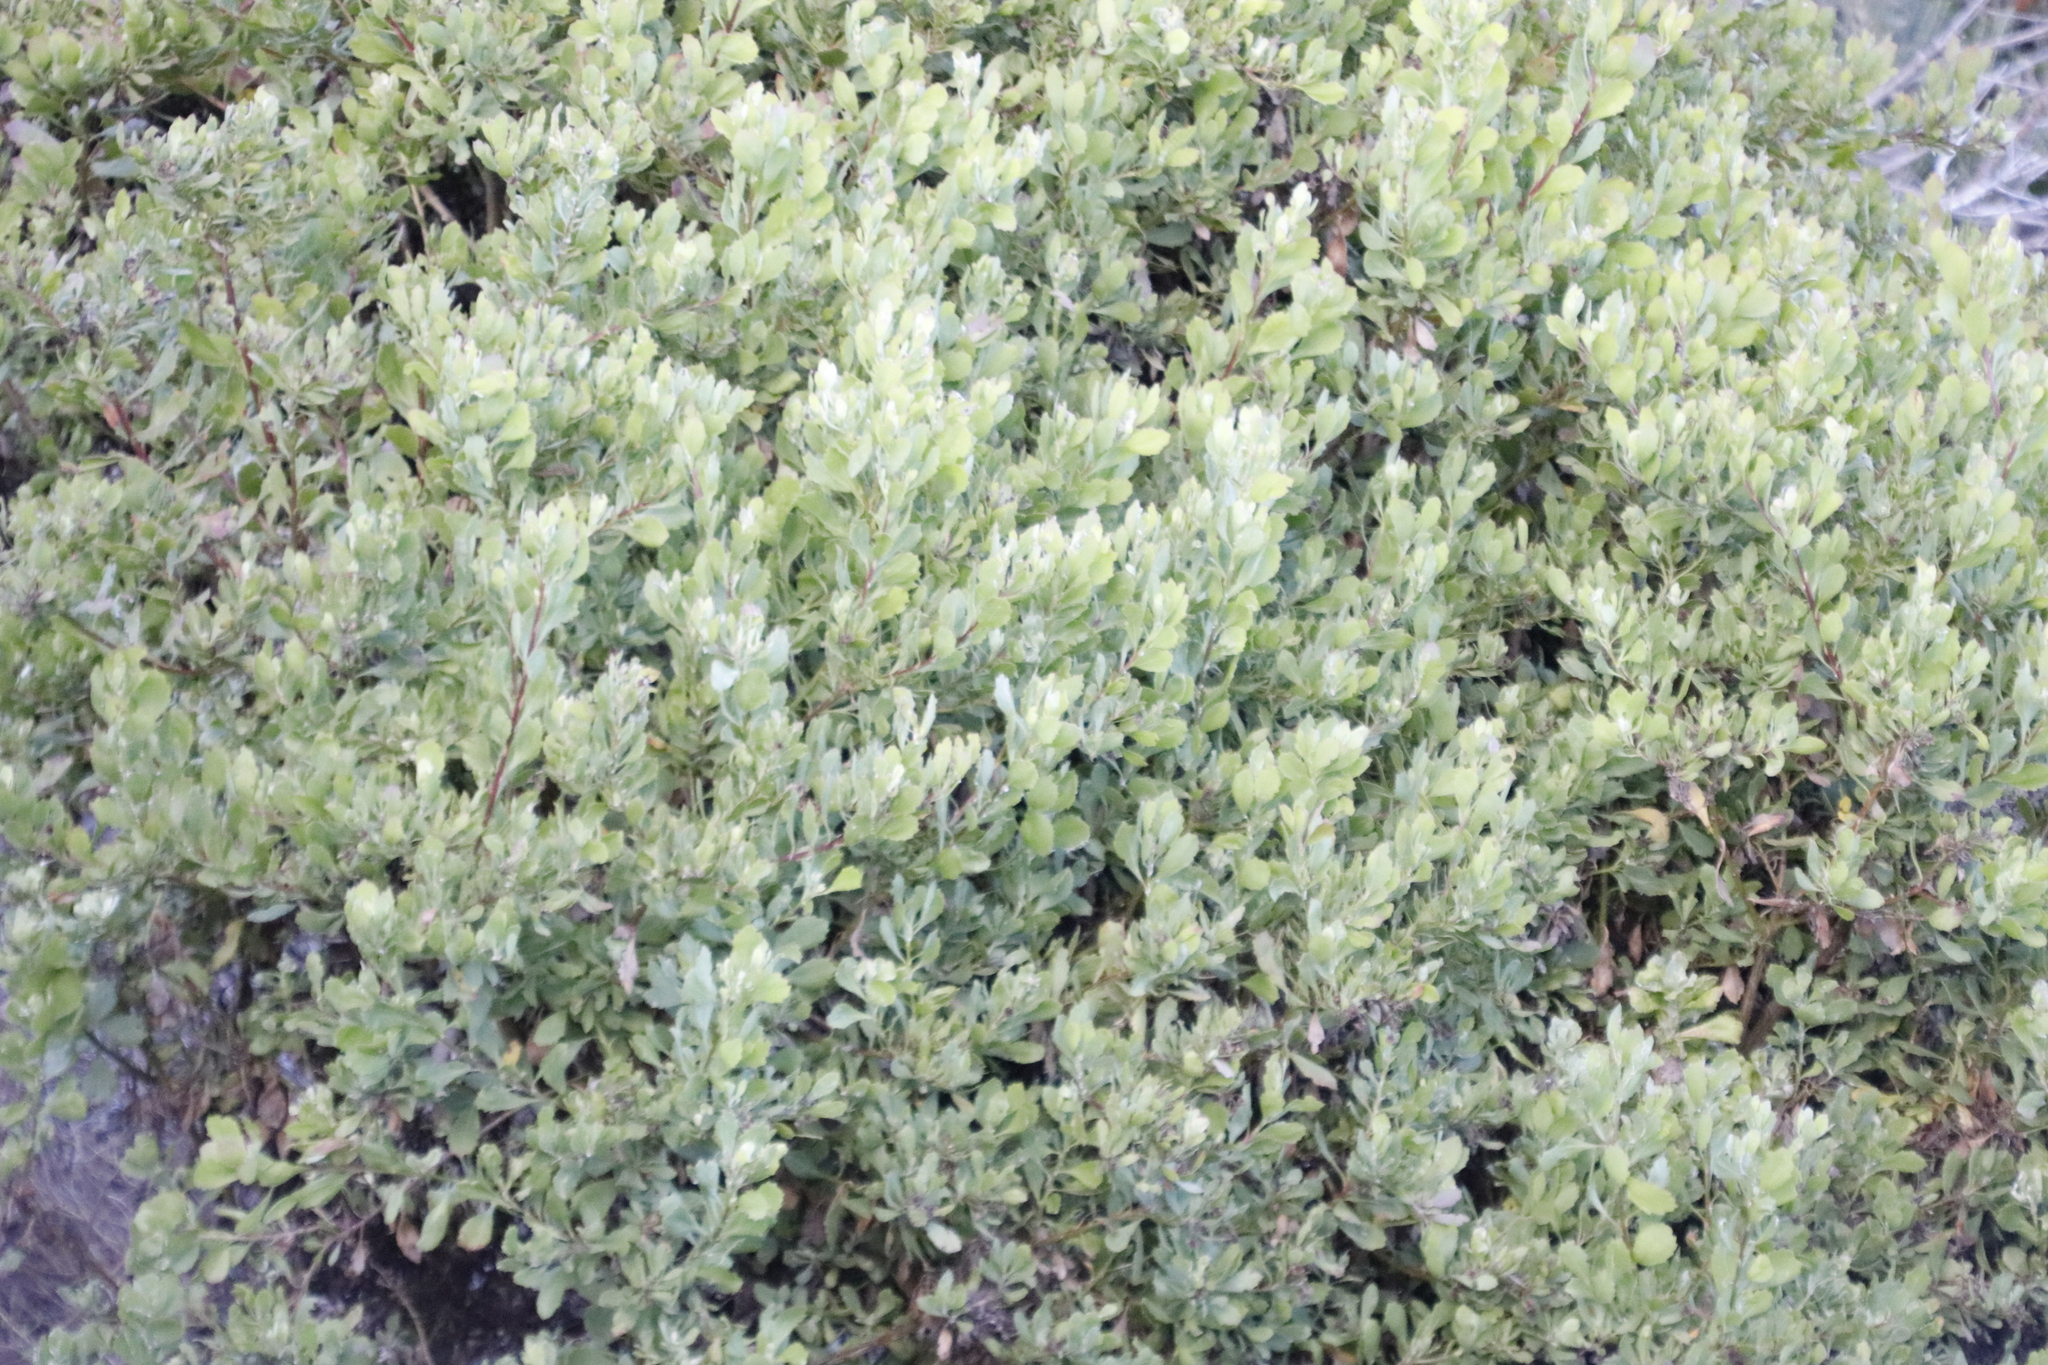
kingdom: Plantae
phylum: Tracheophyta
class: Magnoliopsida
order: Asterales
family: Asteraceae
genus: Osteospermum
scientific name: Osteospermum moniliferum
